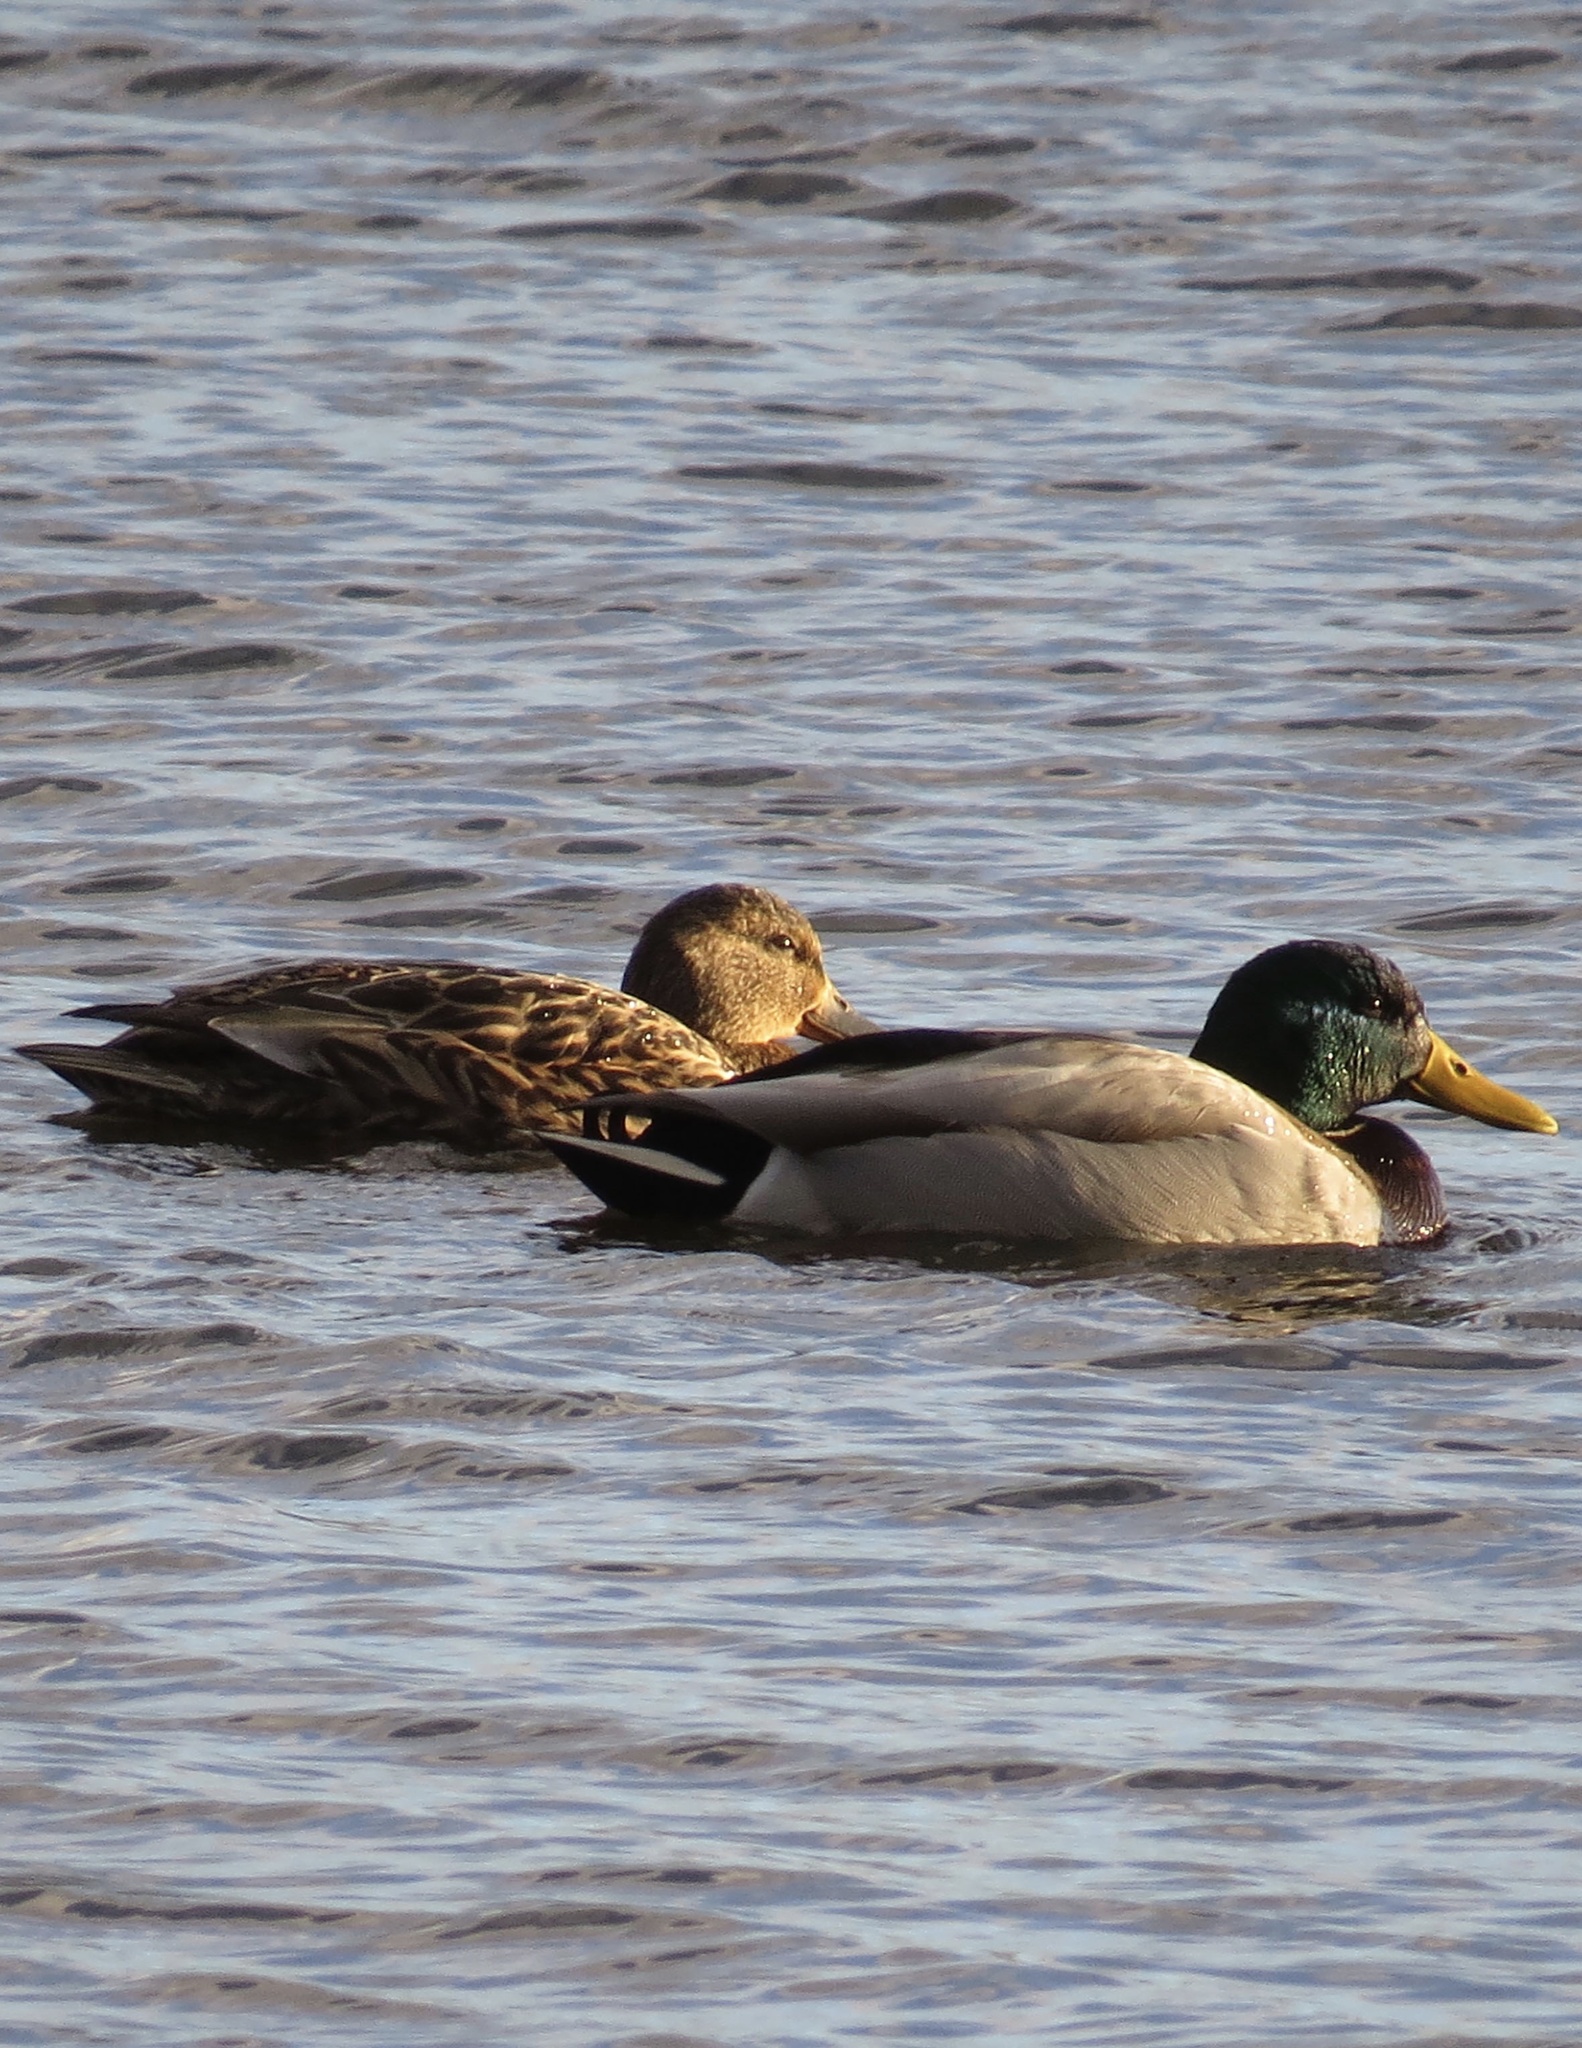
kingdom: Animalia
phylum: Chordata
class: Aves
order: Anseriformes
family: Anatidae
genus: Anas
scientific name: Anas platyrhynchos
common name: Mallard
